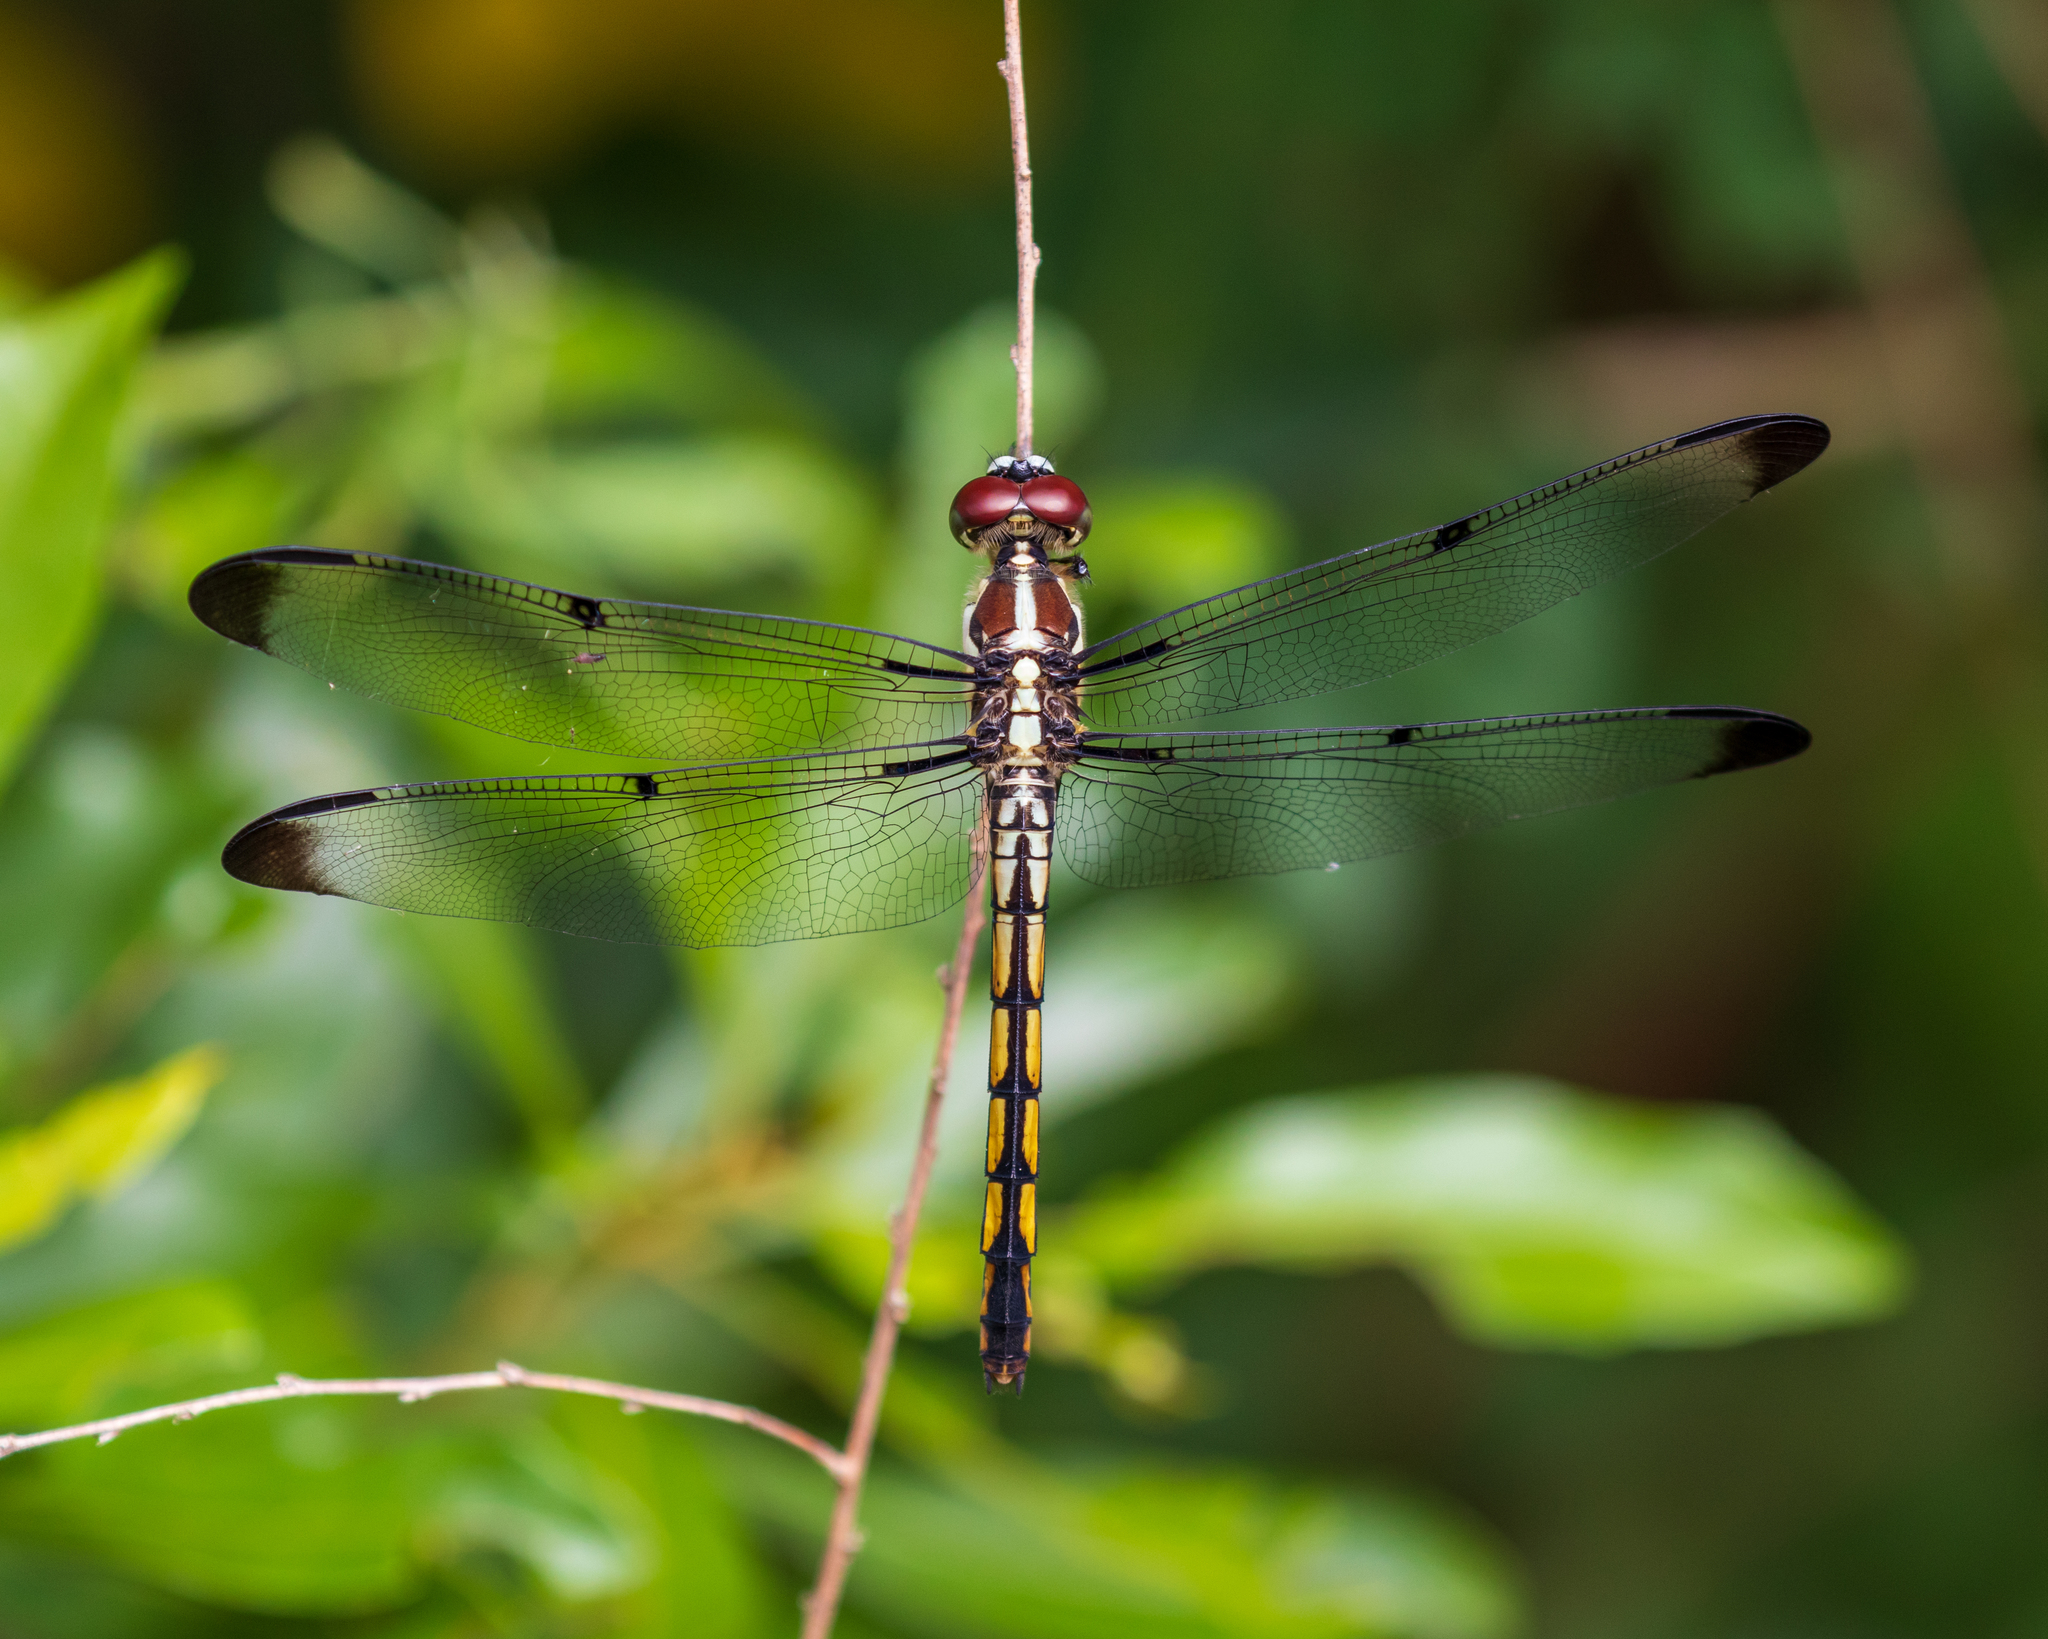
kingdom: Animalia
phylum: Arthropoda
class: Insecta
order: Odonata
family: Libellulidae
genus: Libellula
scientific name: Libellula vibrans
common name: Great blue skimmer
